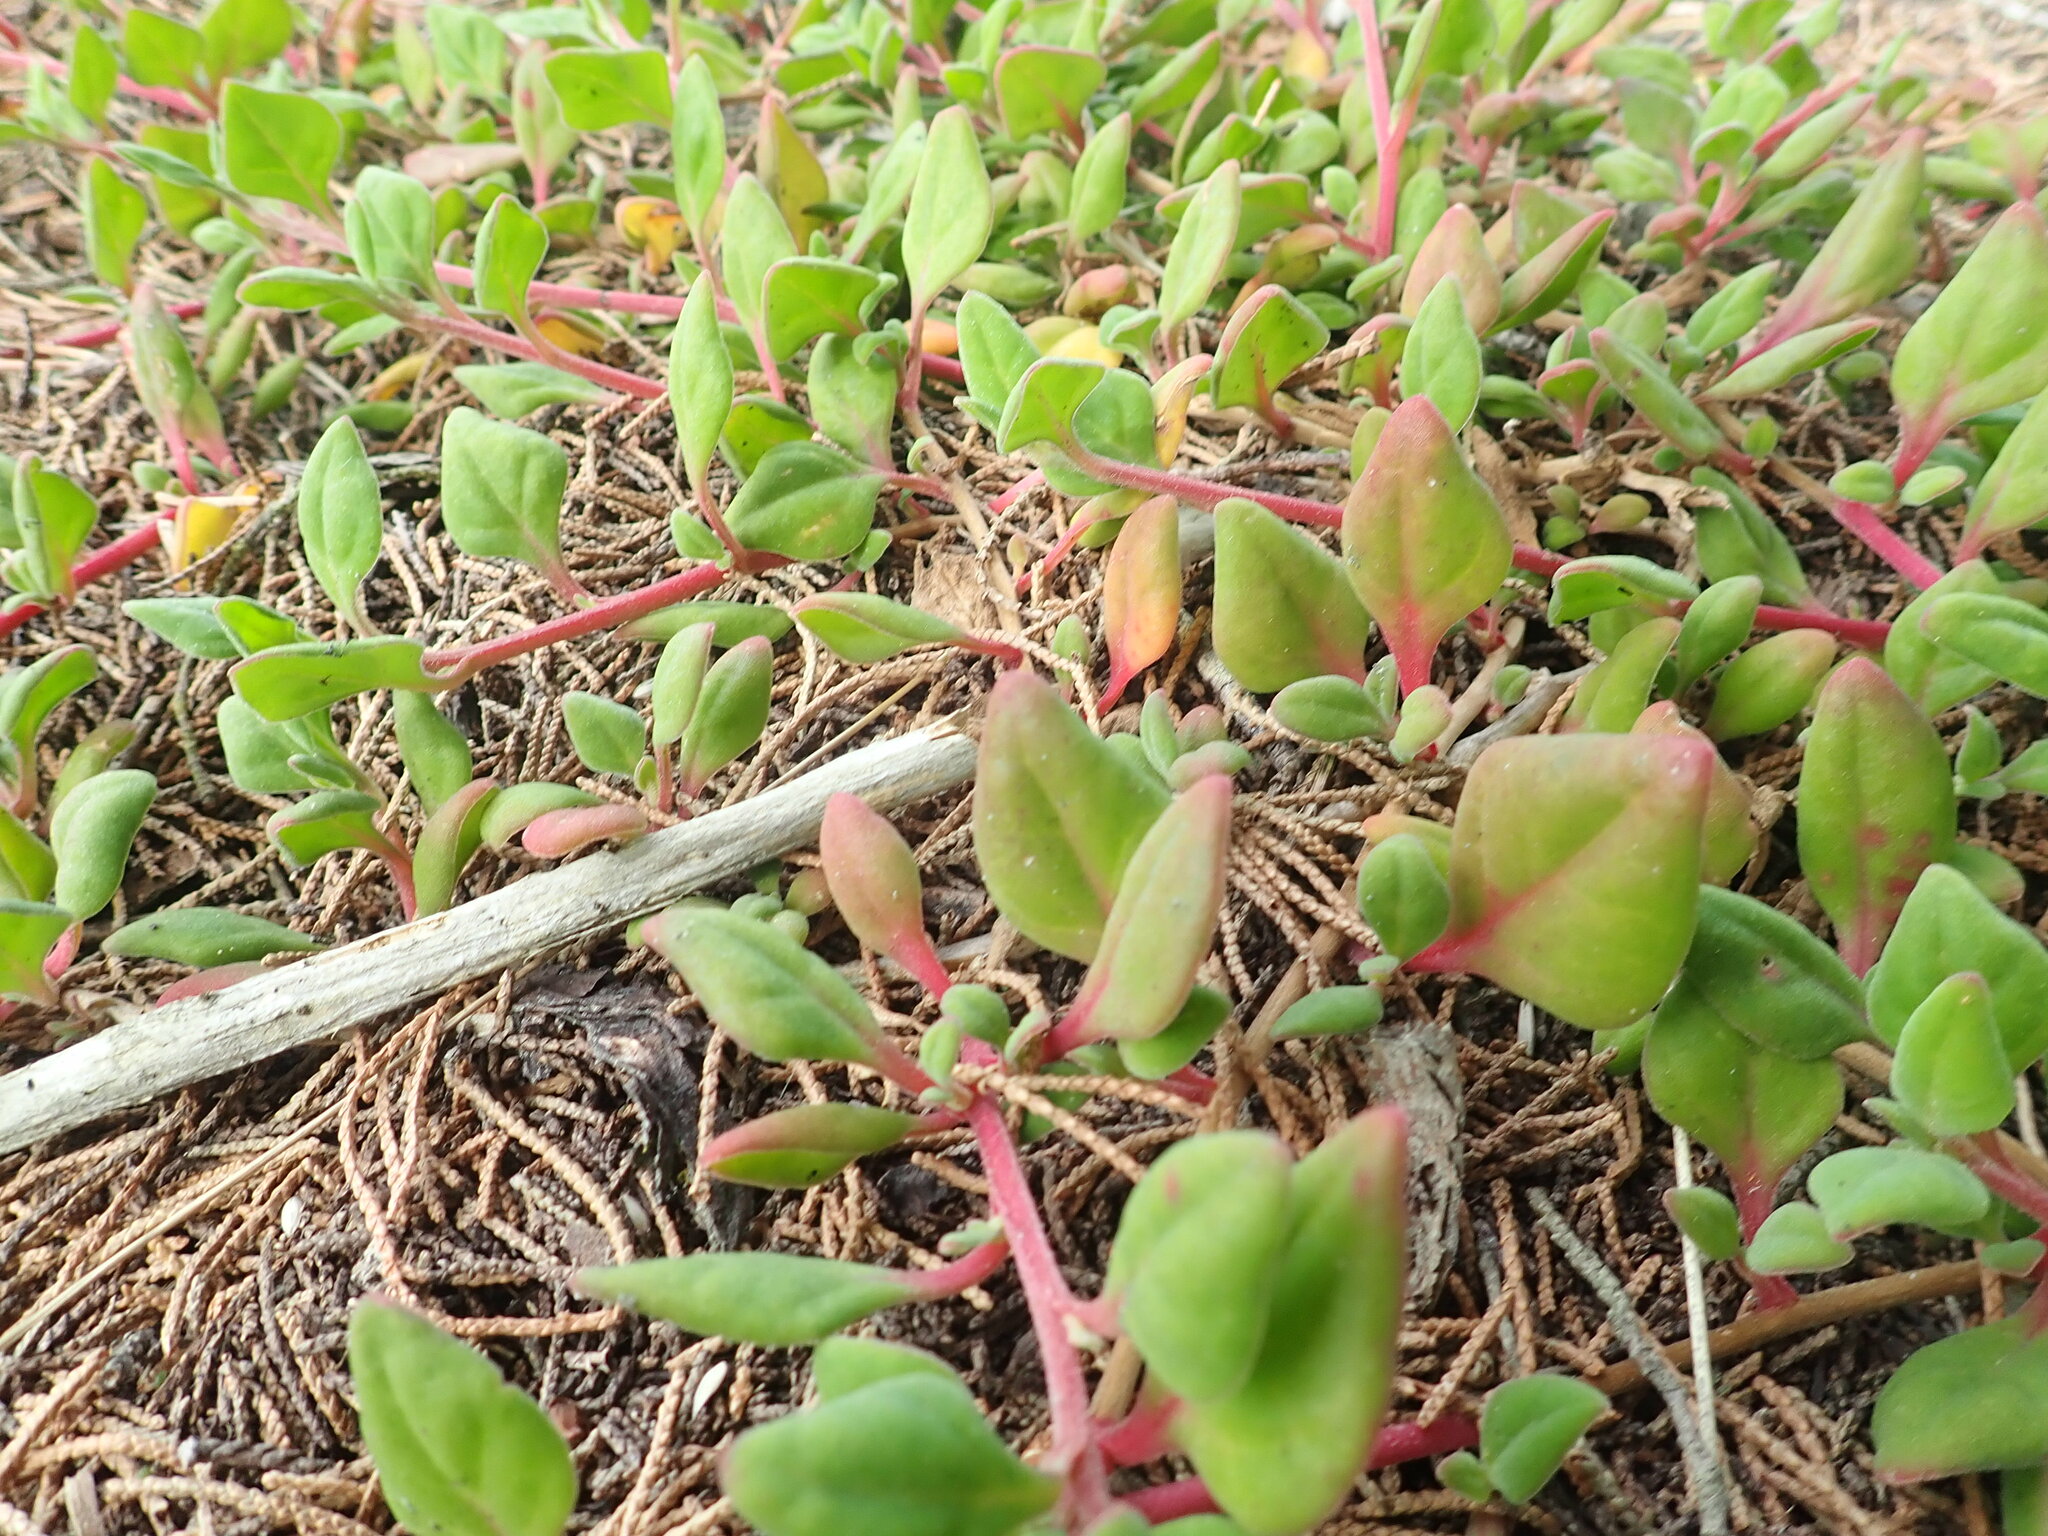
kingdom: Plantae
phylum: Tracheophyta
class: Magnoliopsida
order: Caryophyllales
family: Aizoaceae
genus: Tetragonia
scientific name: Tetragonia implexicoma
